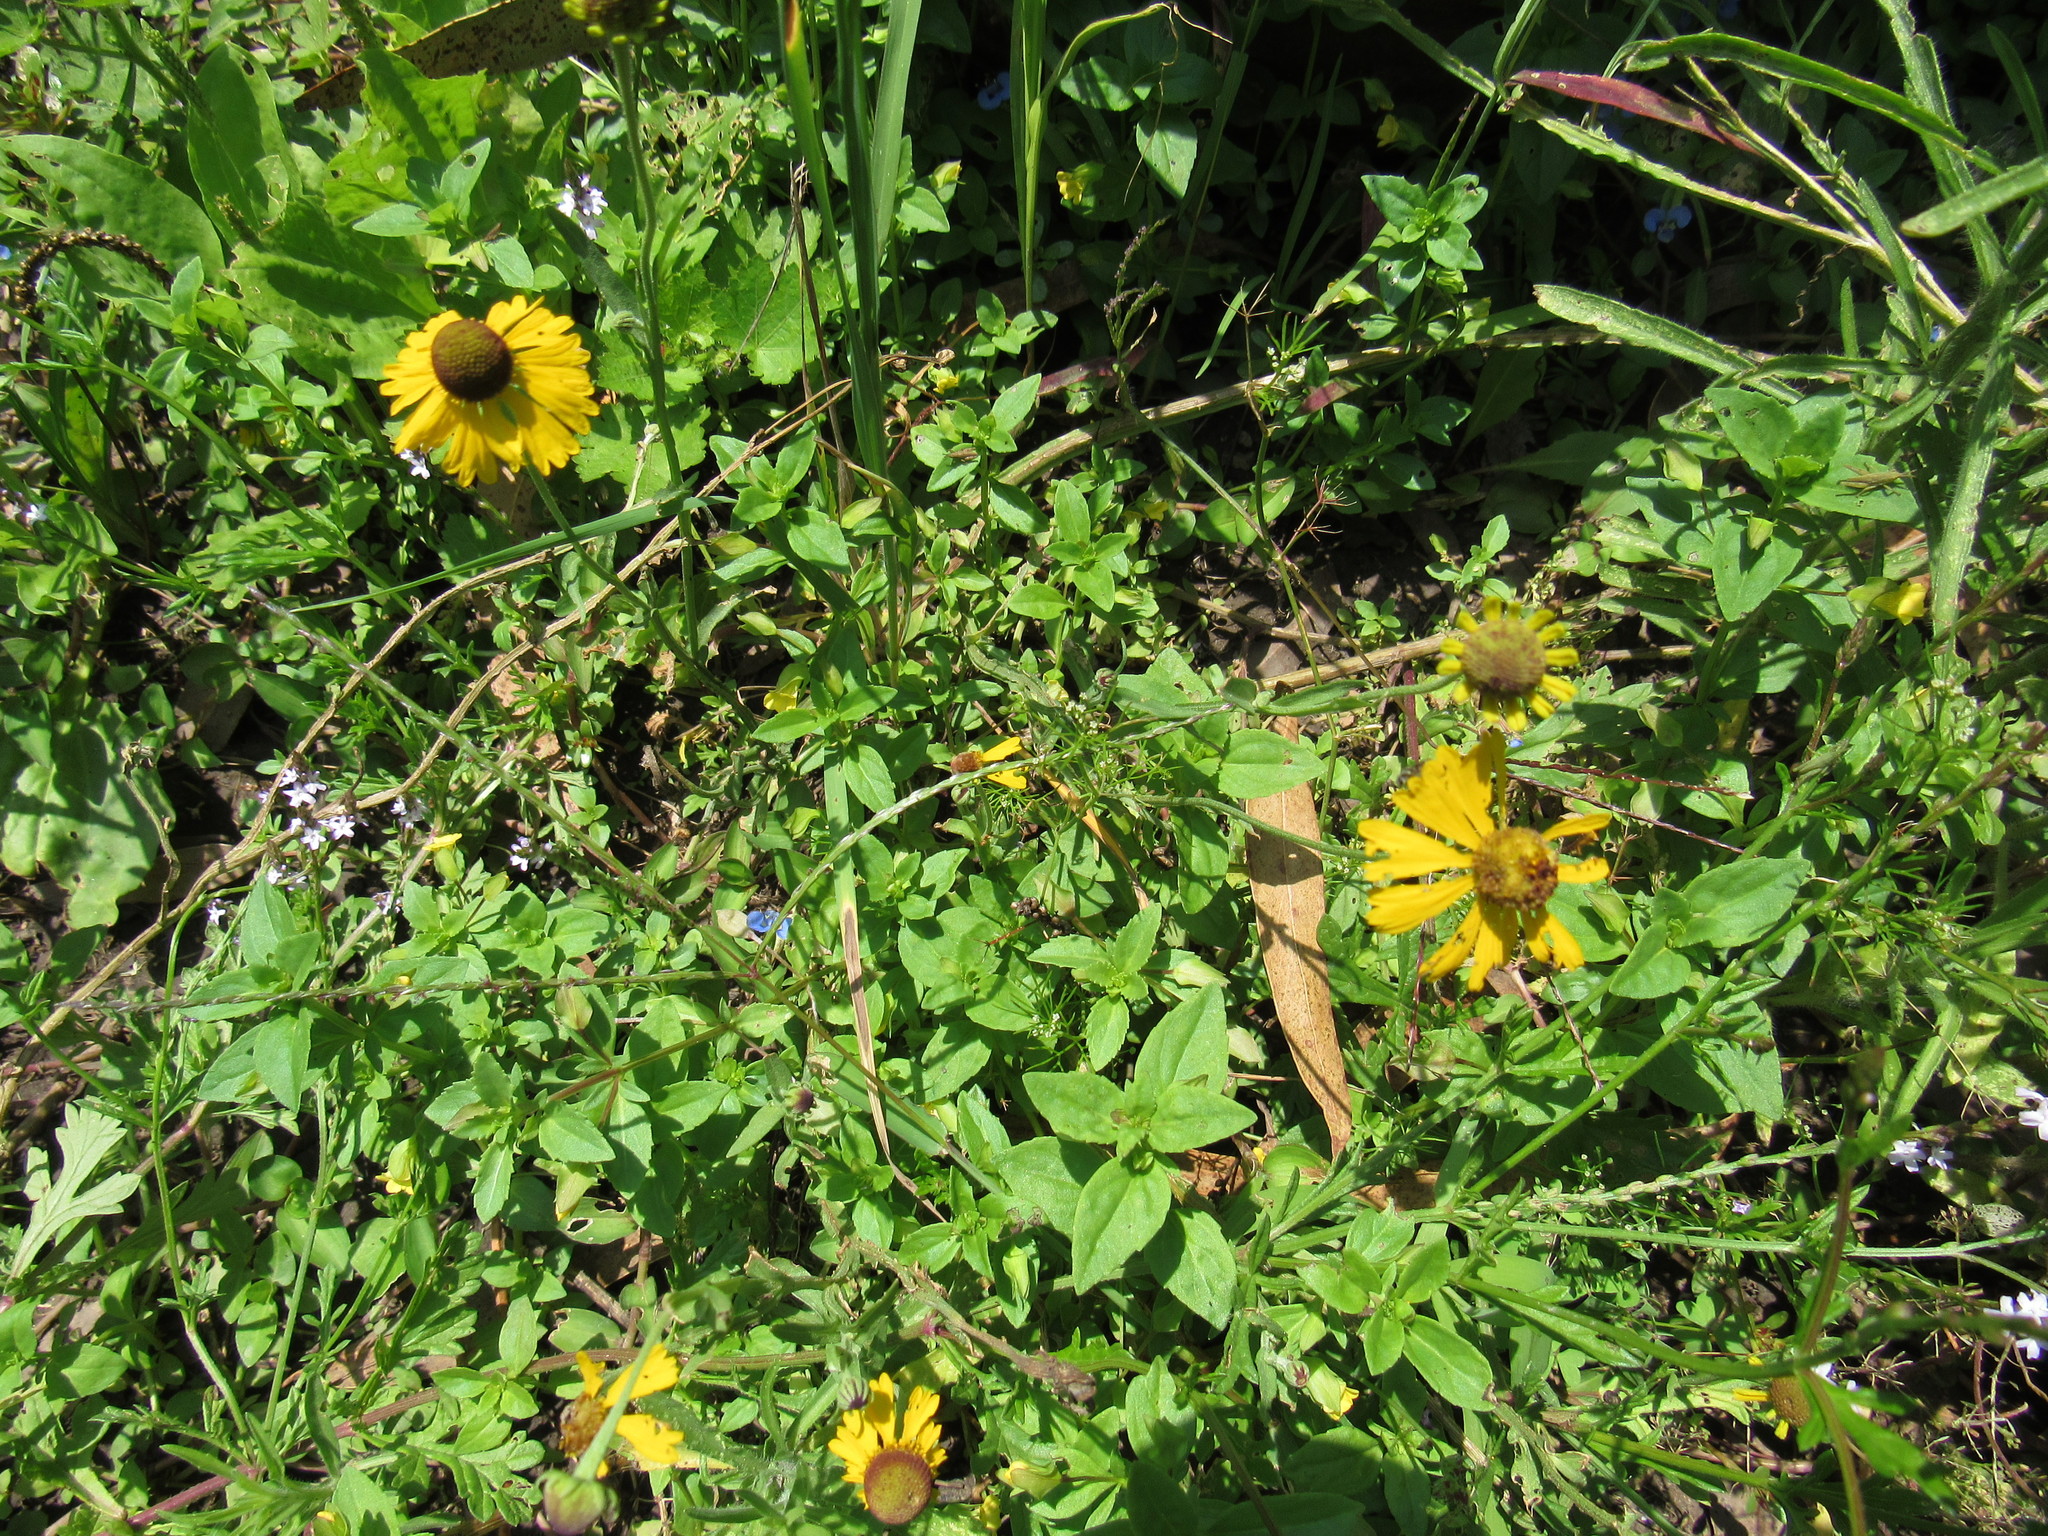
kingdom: Plantae
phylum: Tracheophyta
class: Magnoliopsida
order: Asterales
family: Asteraceae
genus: Helenium
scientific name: Helenium mexicanum
